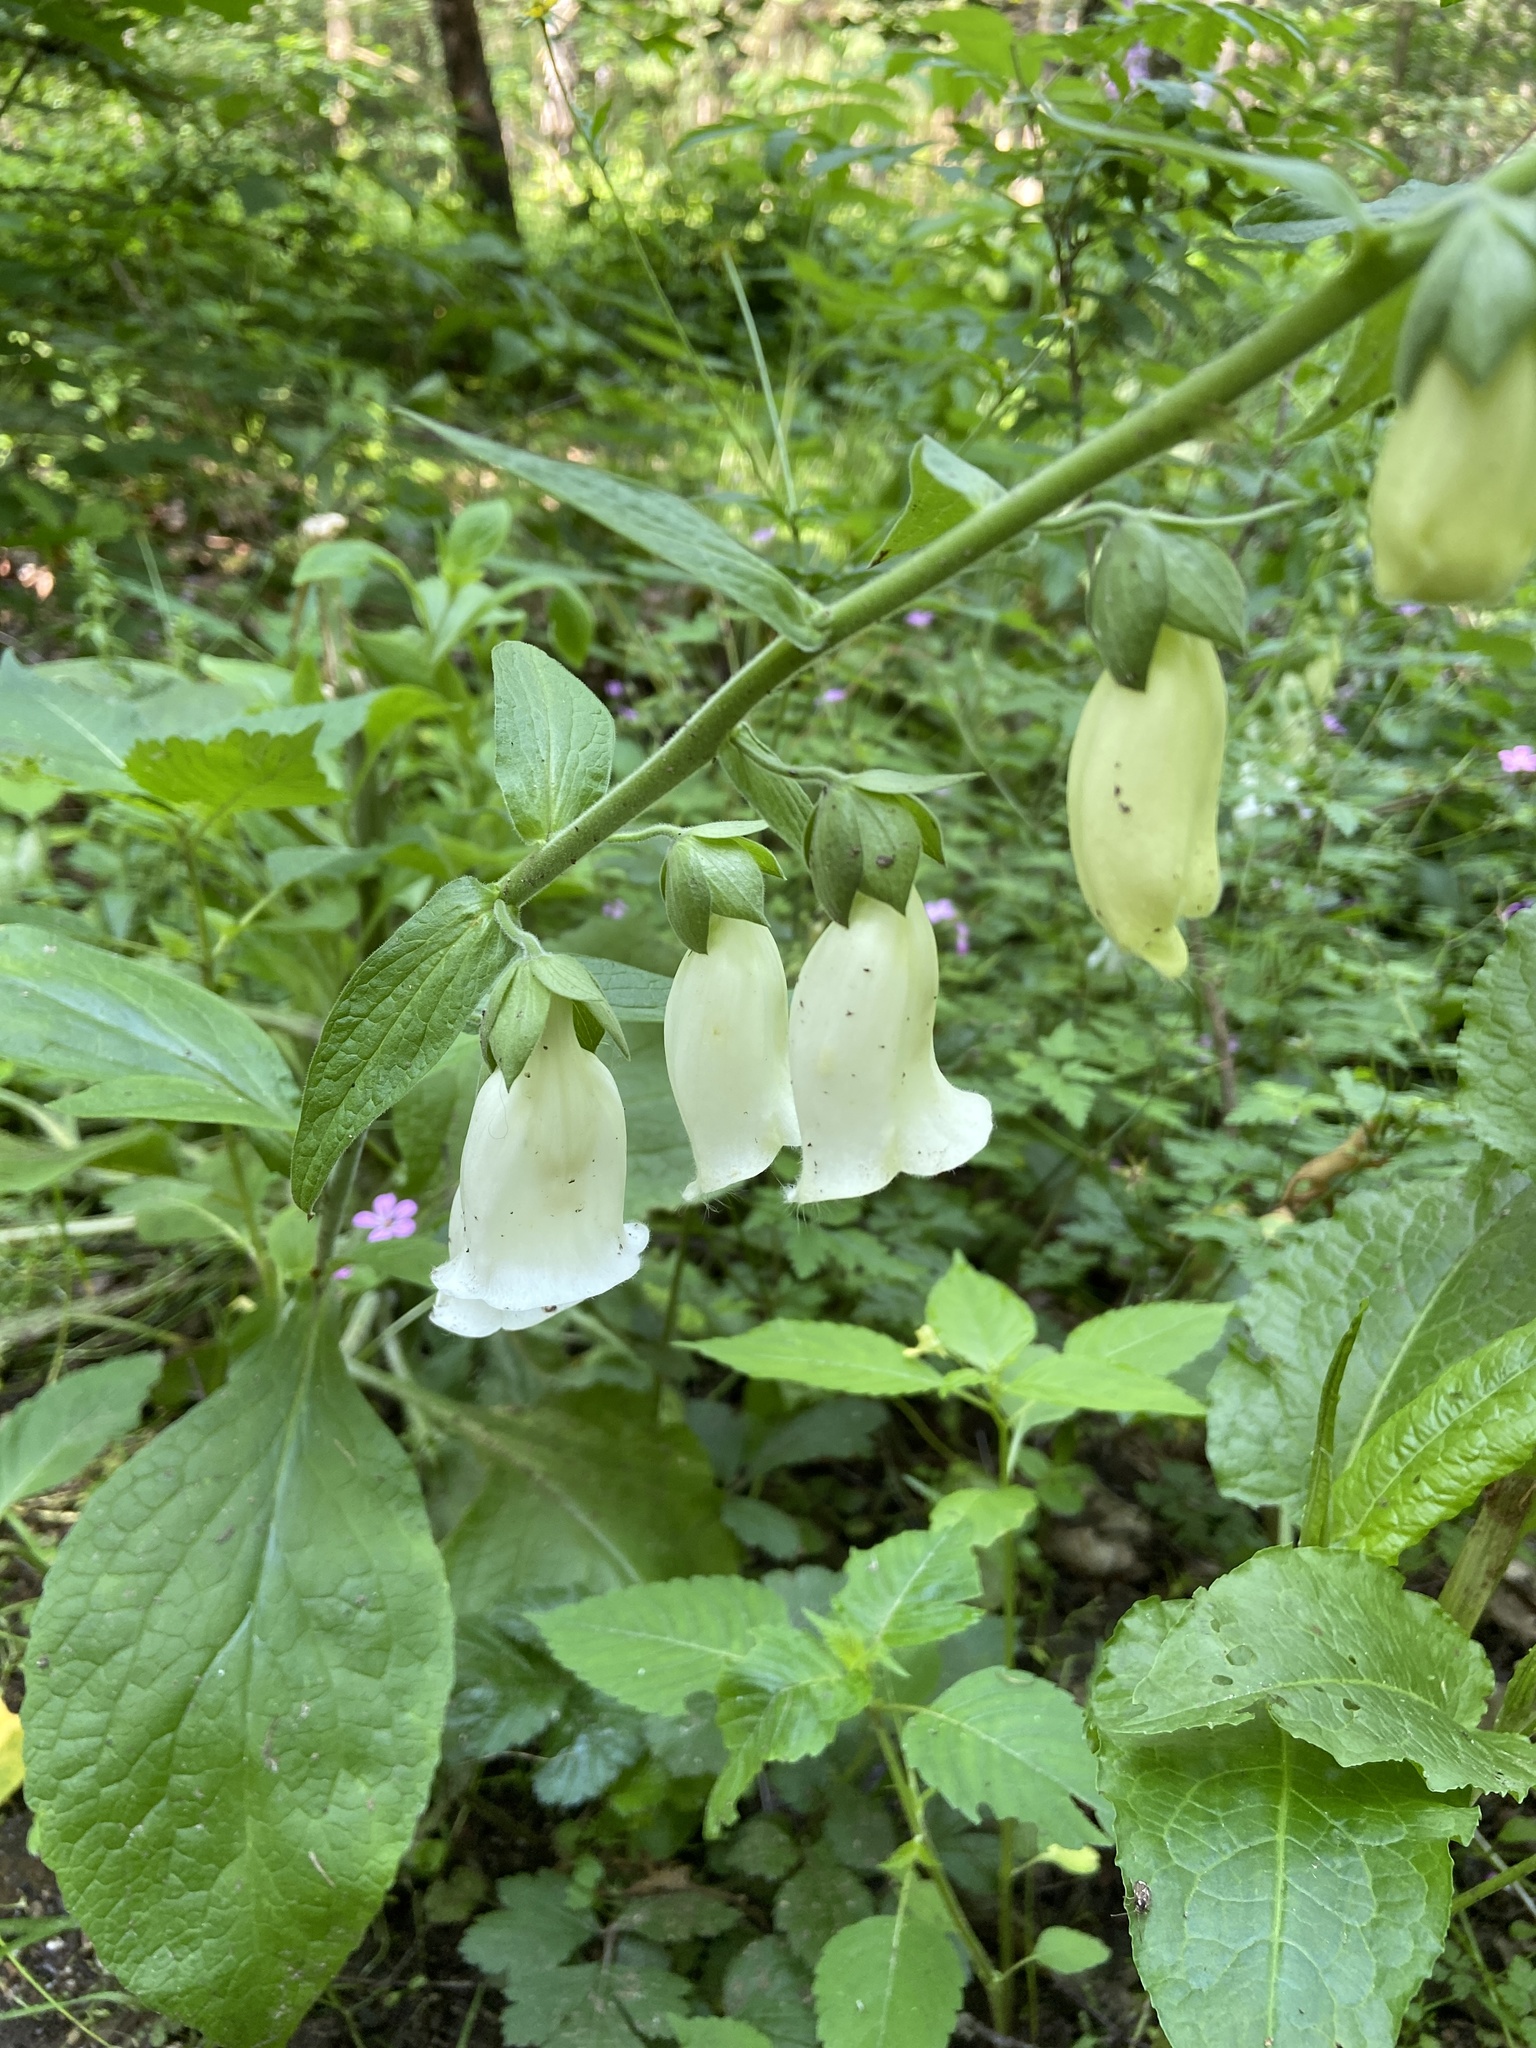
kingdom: Plantae
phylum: Tracheophyta
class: Magnoliopsida
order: Lamiales
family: Plantaginaceae
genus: Digitalis
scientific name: Digitalis grandiflora
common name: Yellow foxglove
